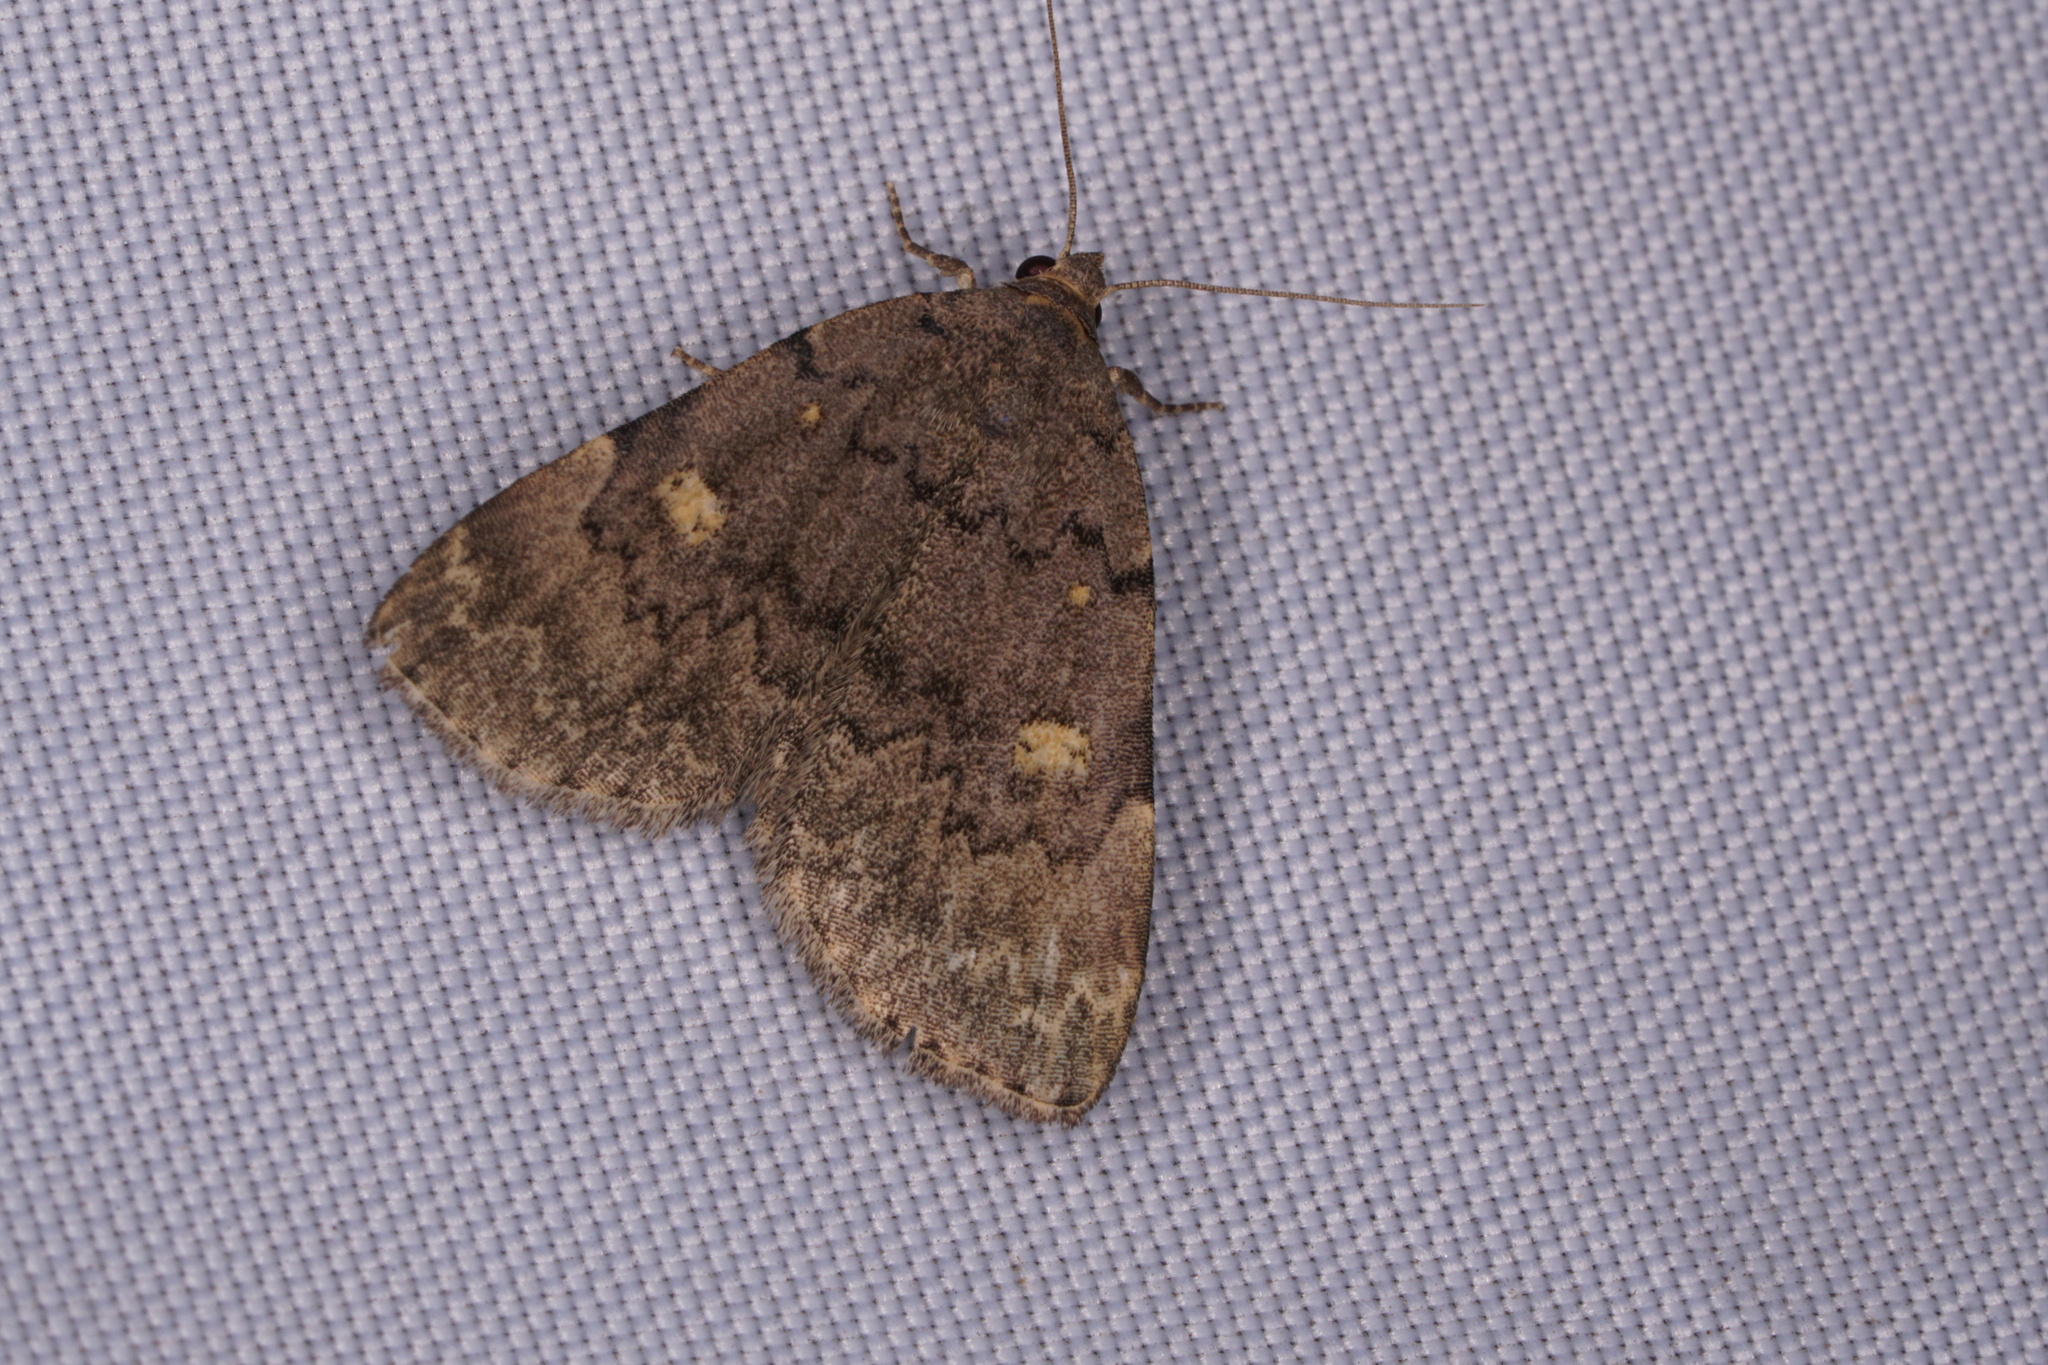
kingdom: Animalia
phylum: Arthropoda
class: Insecta
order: Lepidoptera
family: Erebidae
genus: Idia
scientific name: Idia aemula
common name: Common idia moth
